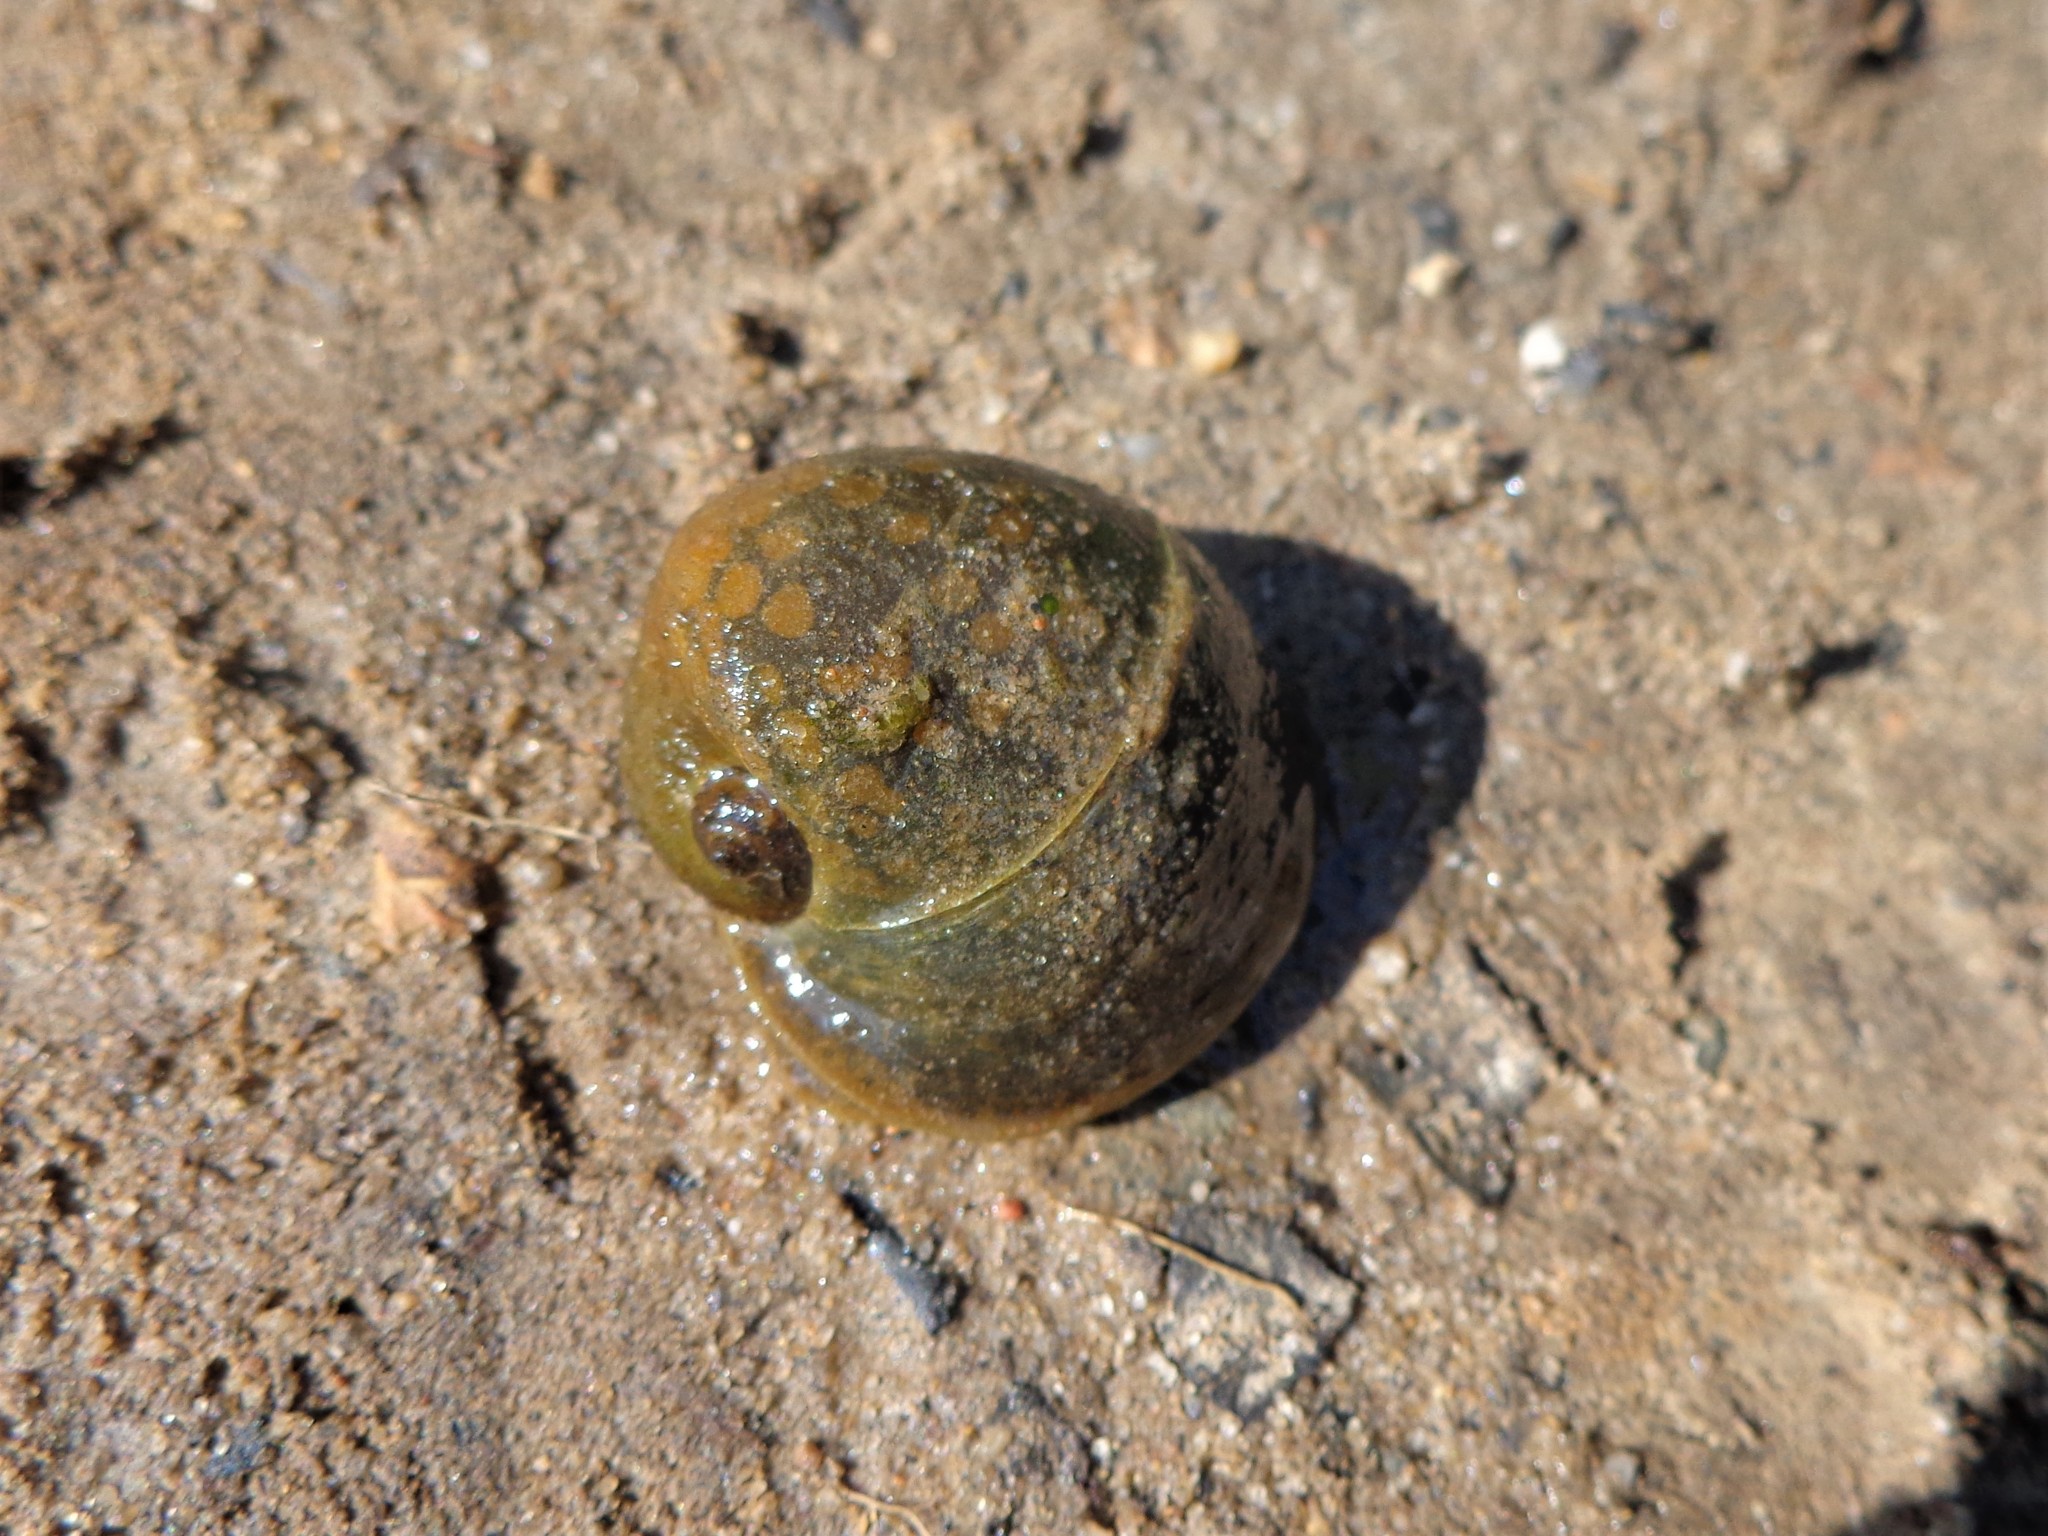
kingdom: Animalia
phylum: Mollusca
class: Gastropoda
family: Lymnaeidae
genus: Radix
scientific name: Radix auricularia
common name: Ear pond snail
